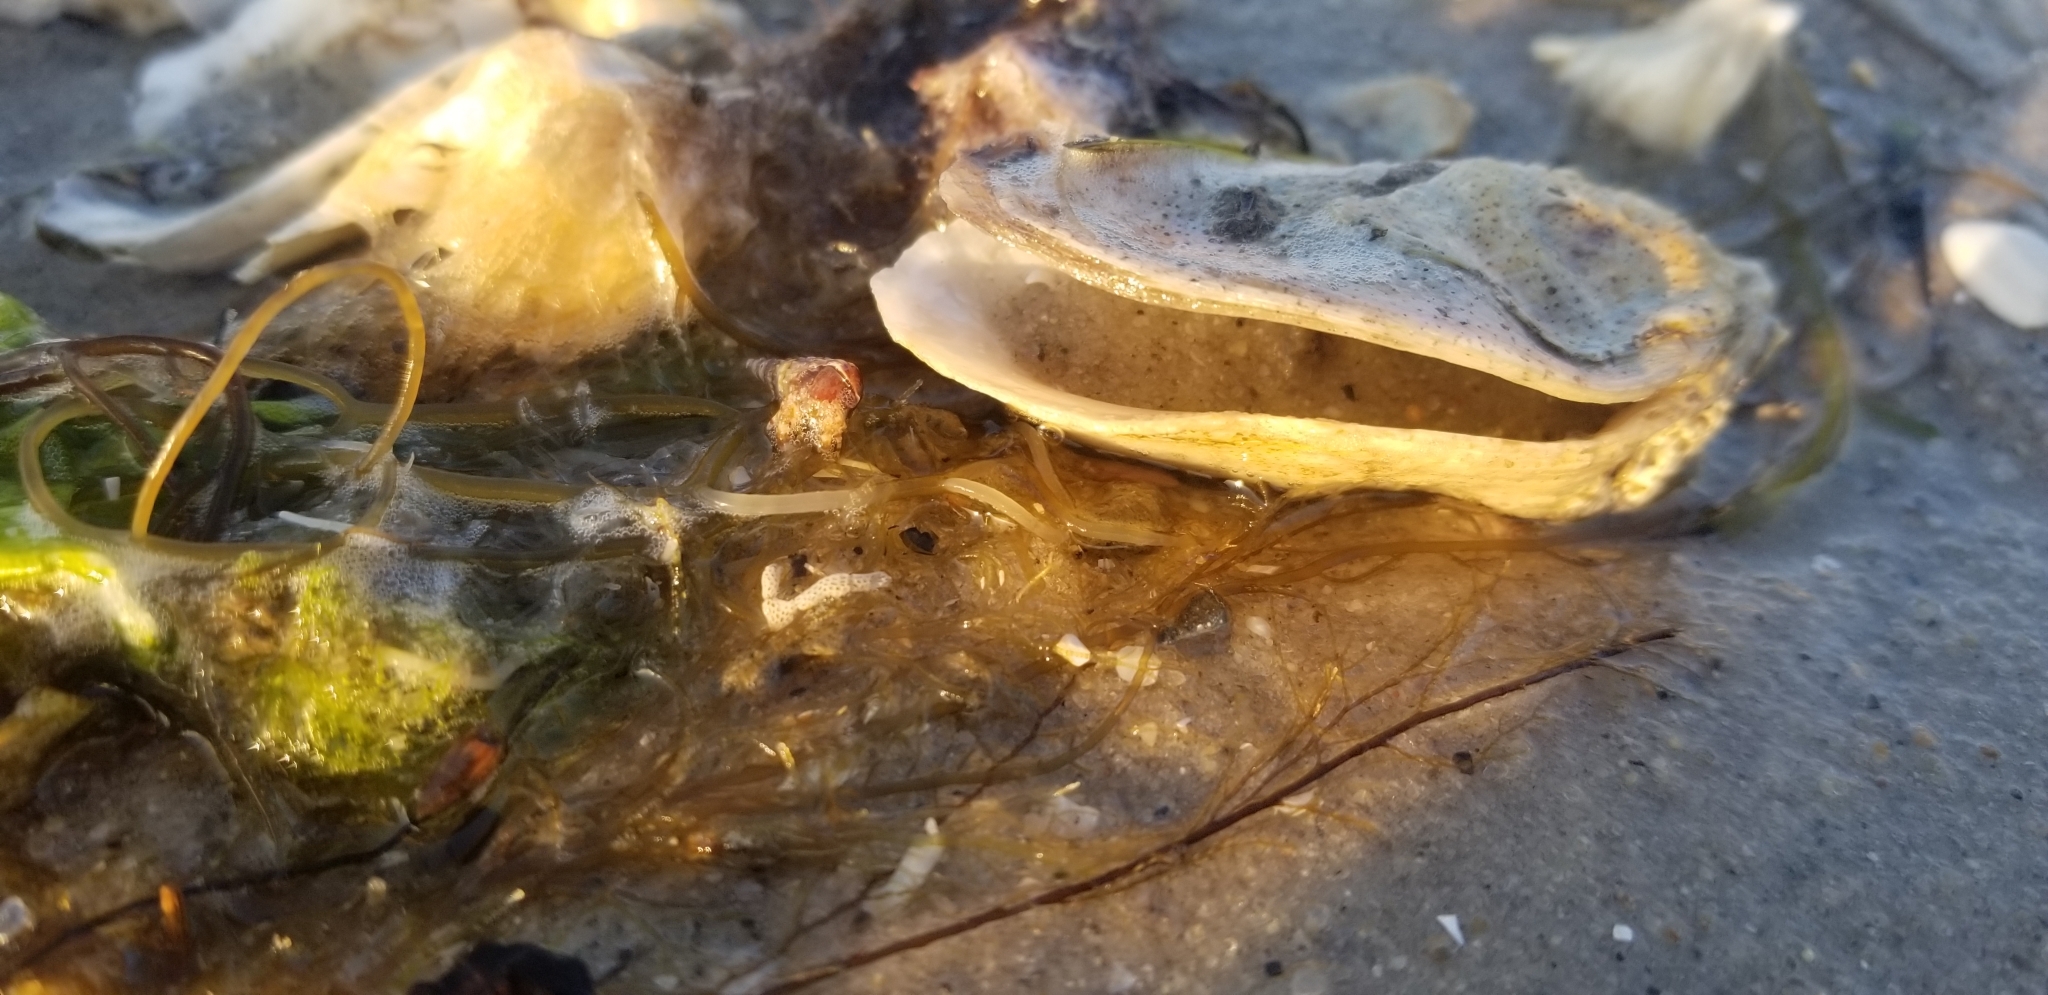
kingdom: Animalia
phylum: Arthropoda
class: Malacostraca
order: Decapoda
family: Paguridae
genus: Pagurus
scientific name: Pagurus annulipes
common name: Brown banded hermit
